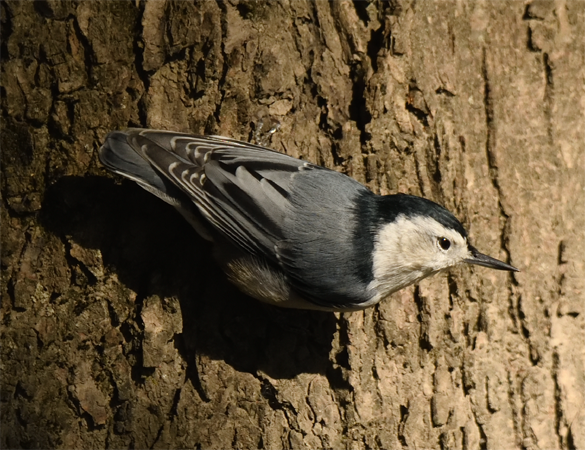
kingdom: Animalia
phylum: Chordata
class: Aves
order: Passeriformes
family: Sittidae
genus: Sitta
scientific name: Sitta carolinensis
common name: White-breasted nuthatch
